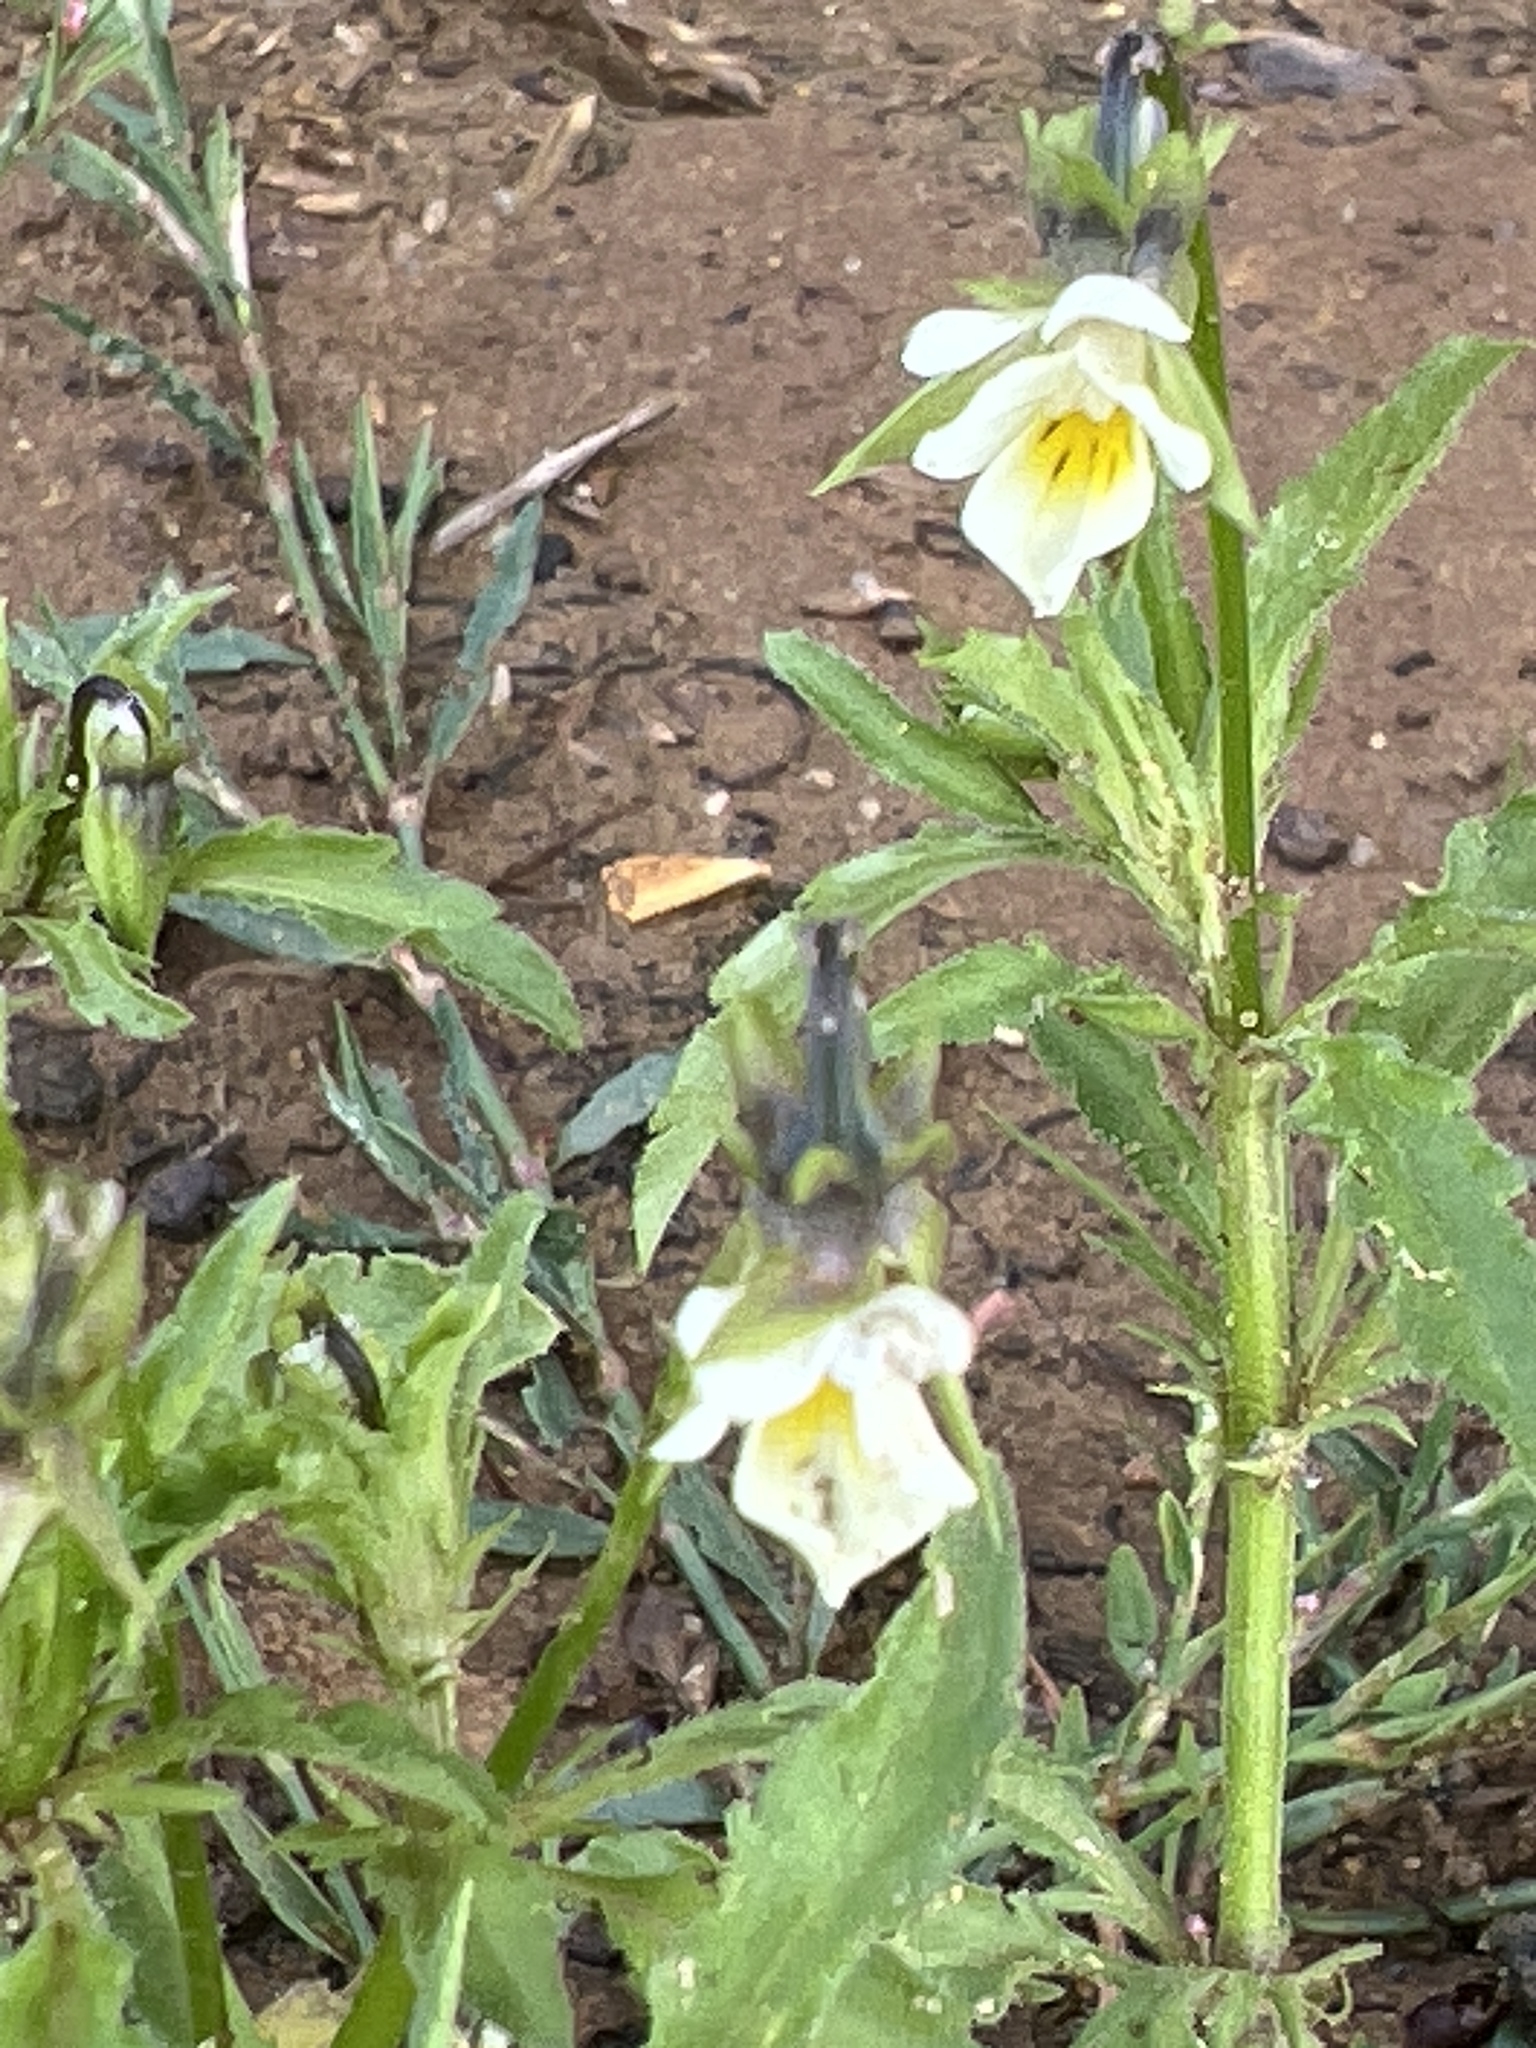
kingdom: Plantae
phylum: Tracheophyta
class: Magnoliopsida
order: Malpighiales
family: Violaceae
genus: Viola
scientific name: Viola arvensis
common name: Field pansy
